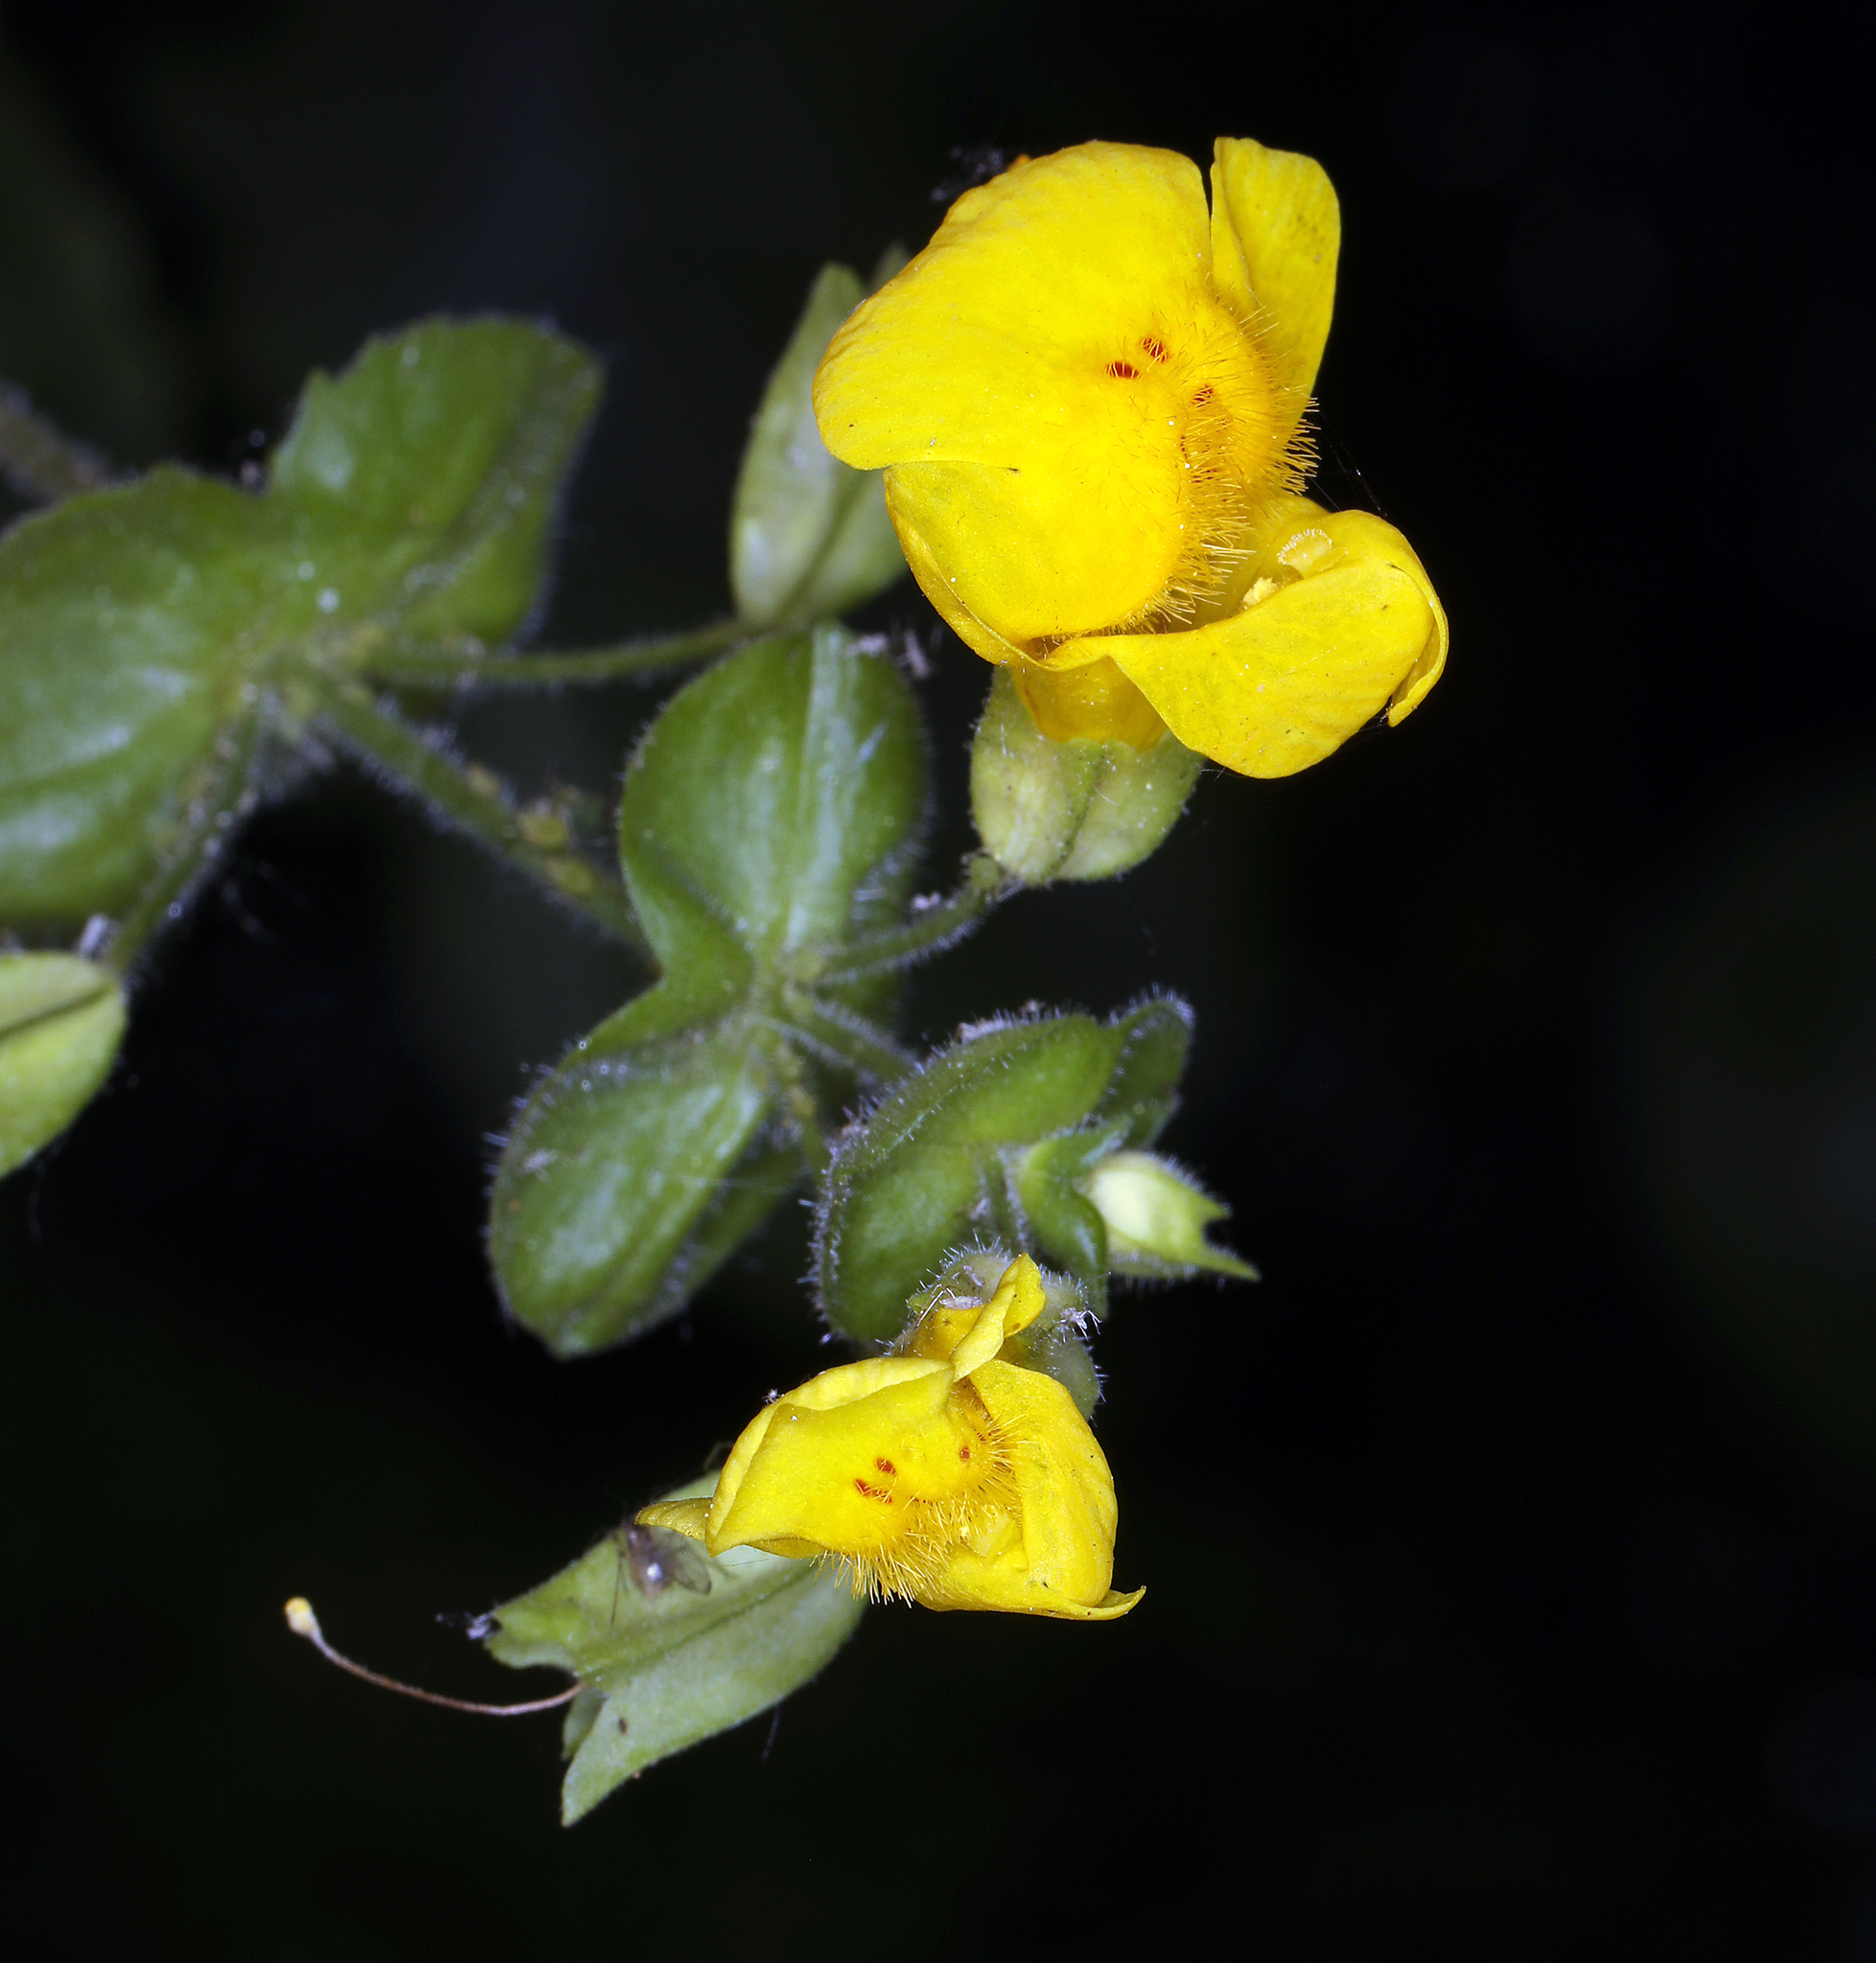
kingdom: Plantae
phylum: Tracheophyta
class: Magnoliopsida
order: Lamiales
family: Phrymaceae
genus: Erythranthe
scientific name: Erythranthe guttata
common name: Monkeyflower
